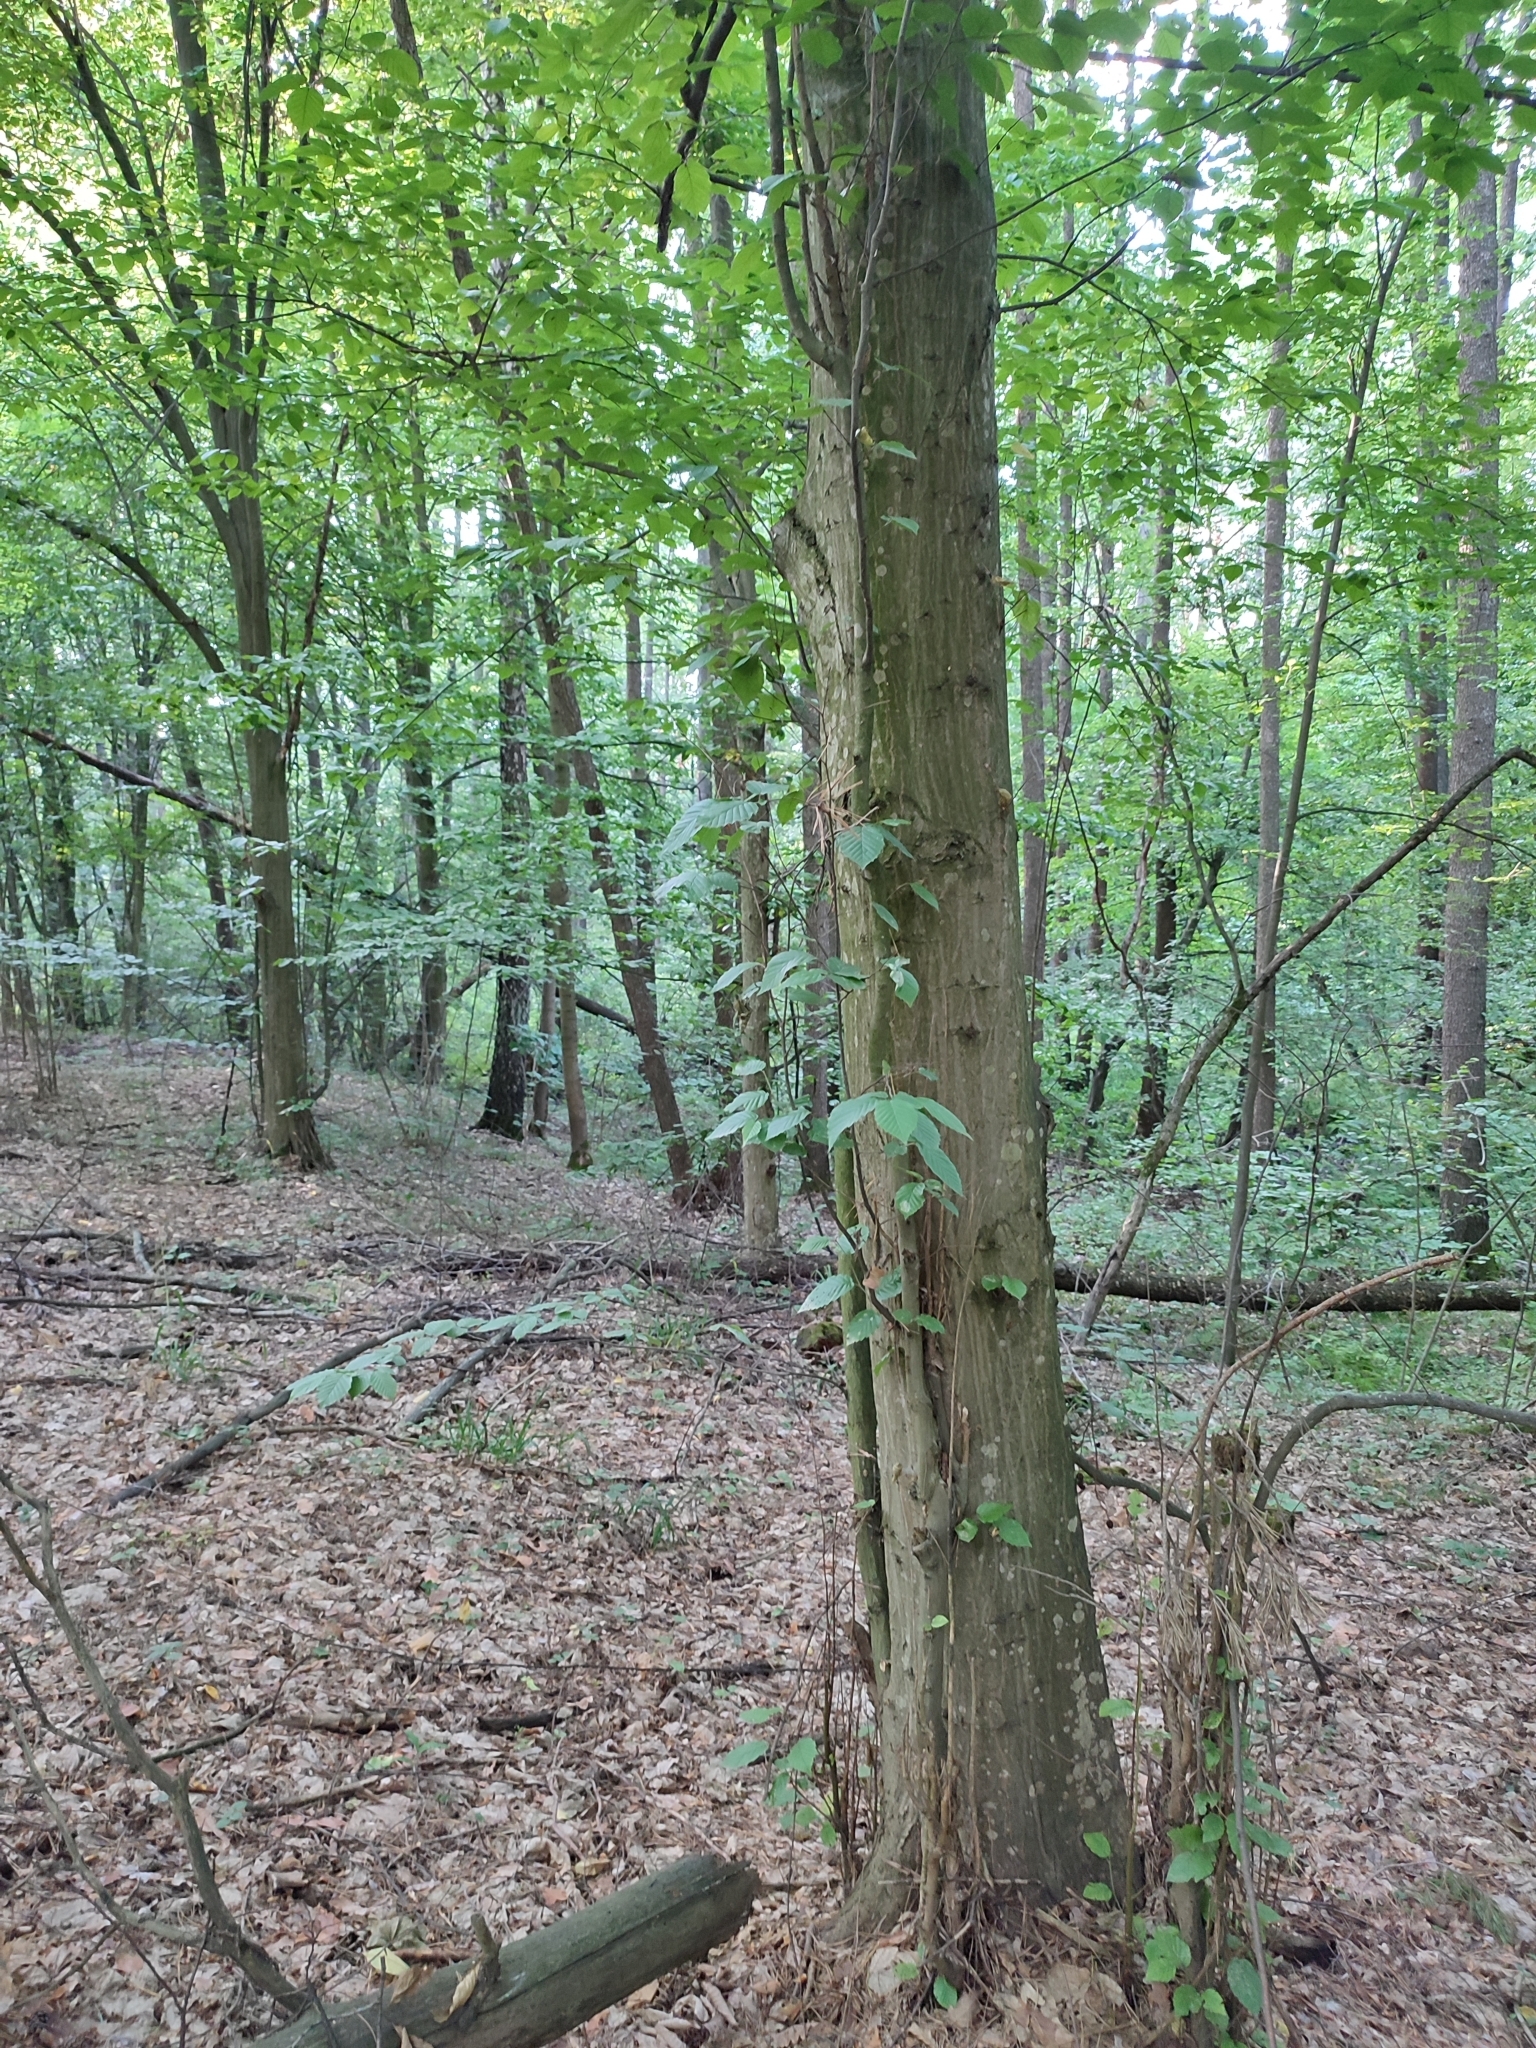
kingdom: Plantae
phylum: Tracheophyta
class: Magnoliopsida
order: Fagales
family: Betulaceae
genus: Carpinus
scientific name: Carpinus betulus
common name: Hornbeam
